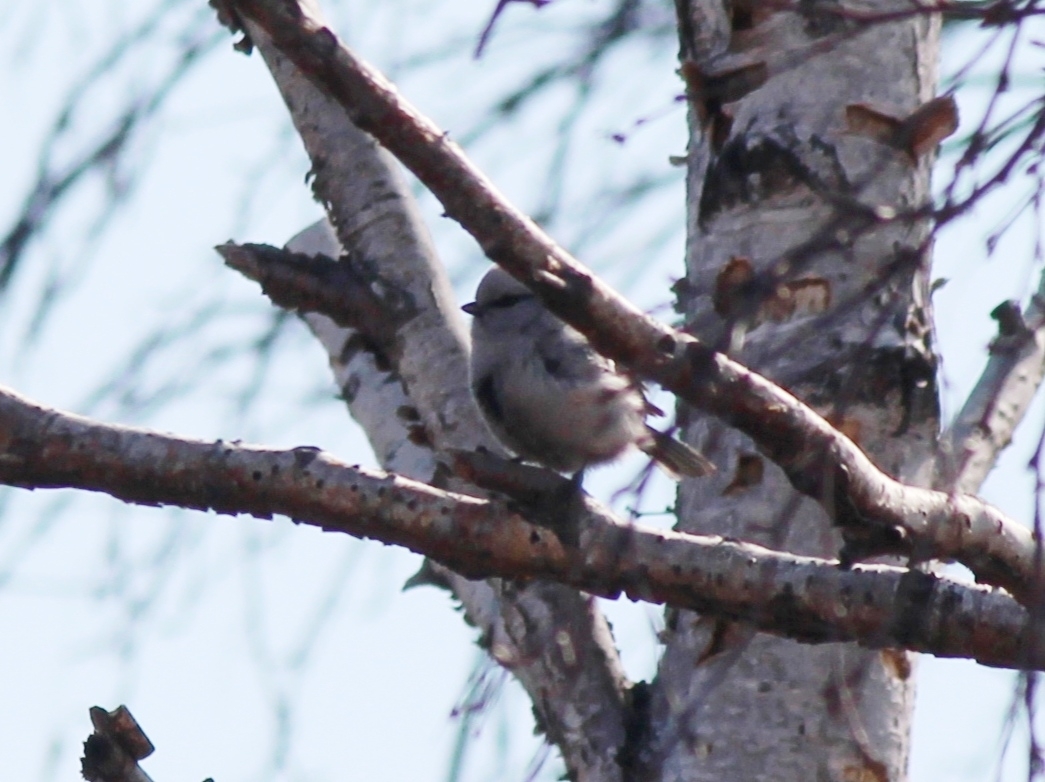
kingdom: Animalia
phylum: Chordata
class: Aves
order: Passeriformes
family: Paridae
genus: Cyanistes
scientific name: Cyanistes cyanus
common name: Azure tit
